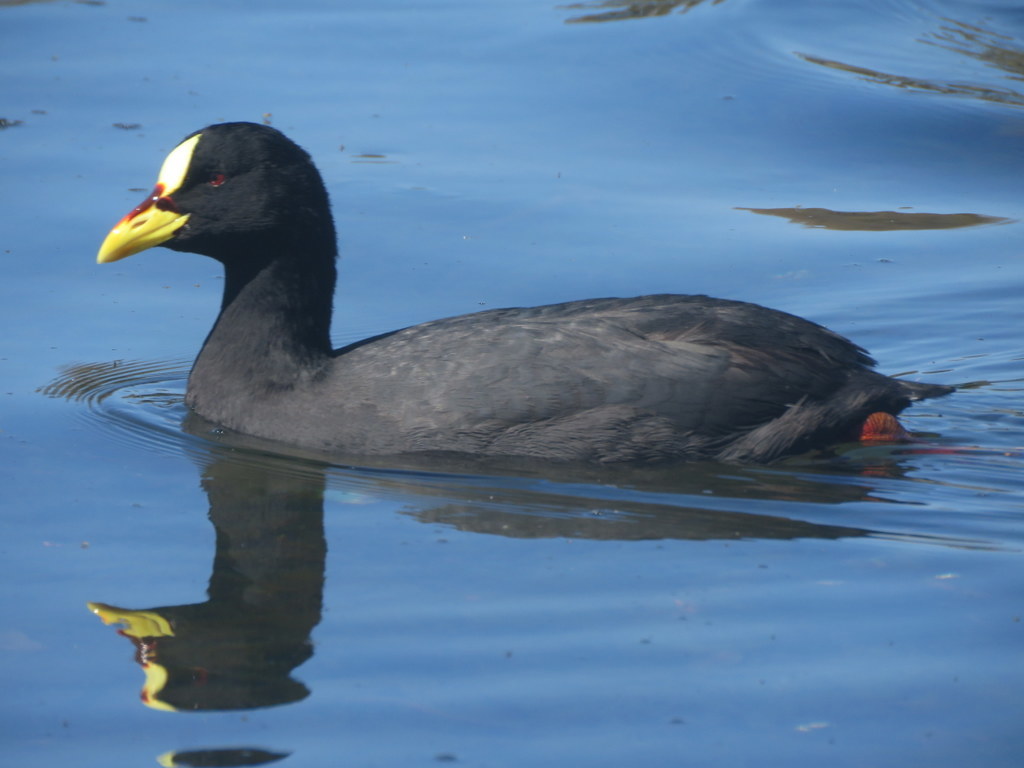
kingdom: Animalia
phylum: Chordata
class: Aves
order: Gruiformes
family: Rallidae
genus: Fulica
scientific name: Fulica armillata
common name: Red-gartered coot
